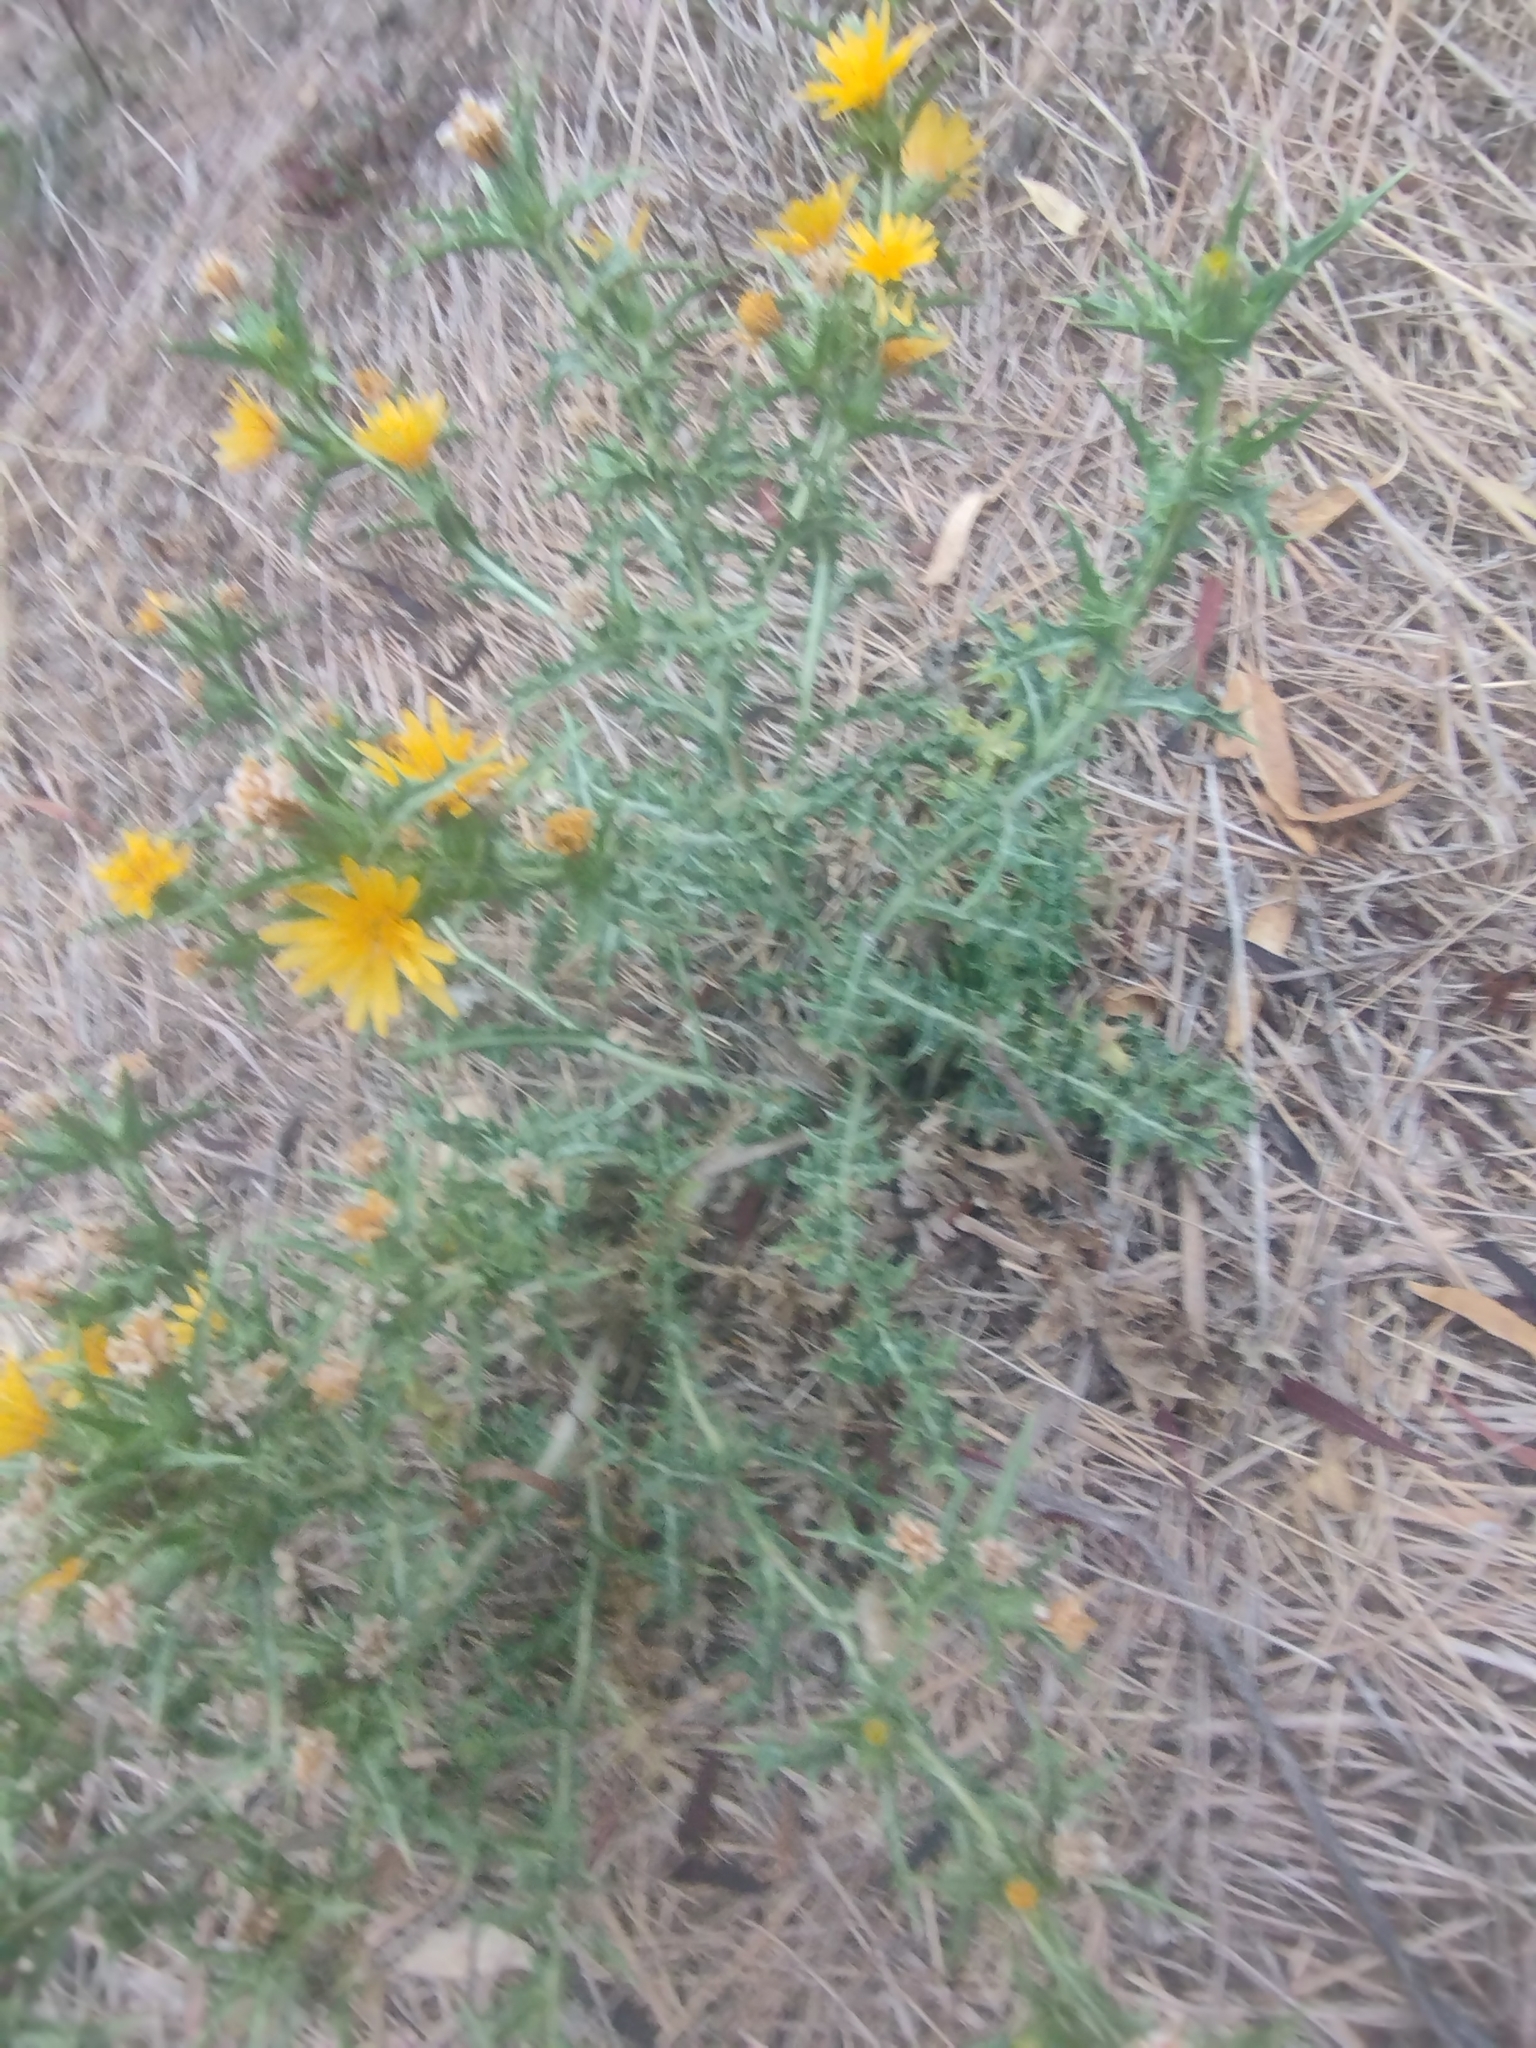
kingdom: Plantae
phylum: Tracheophyta
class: Magnoliopsida
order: Asterales
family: Asteraceae
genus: Scolymus
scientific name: Scolymus hispanicus
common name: Golden thistle
